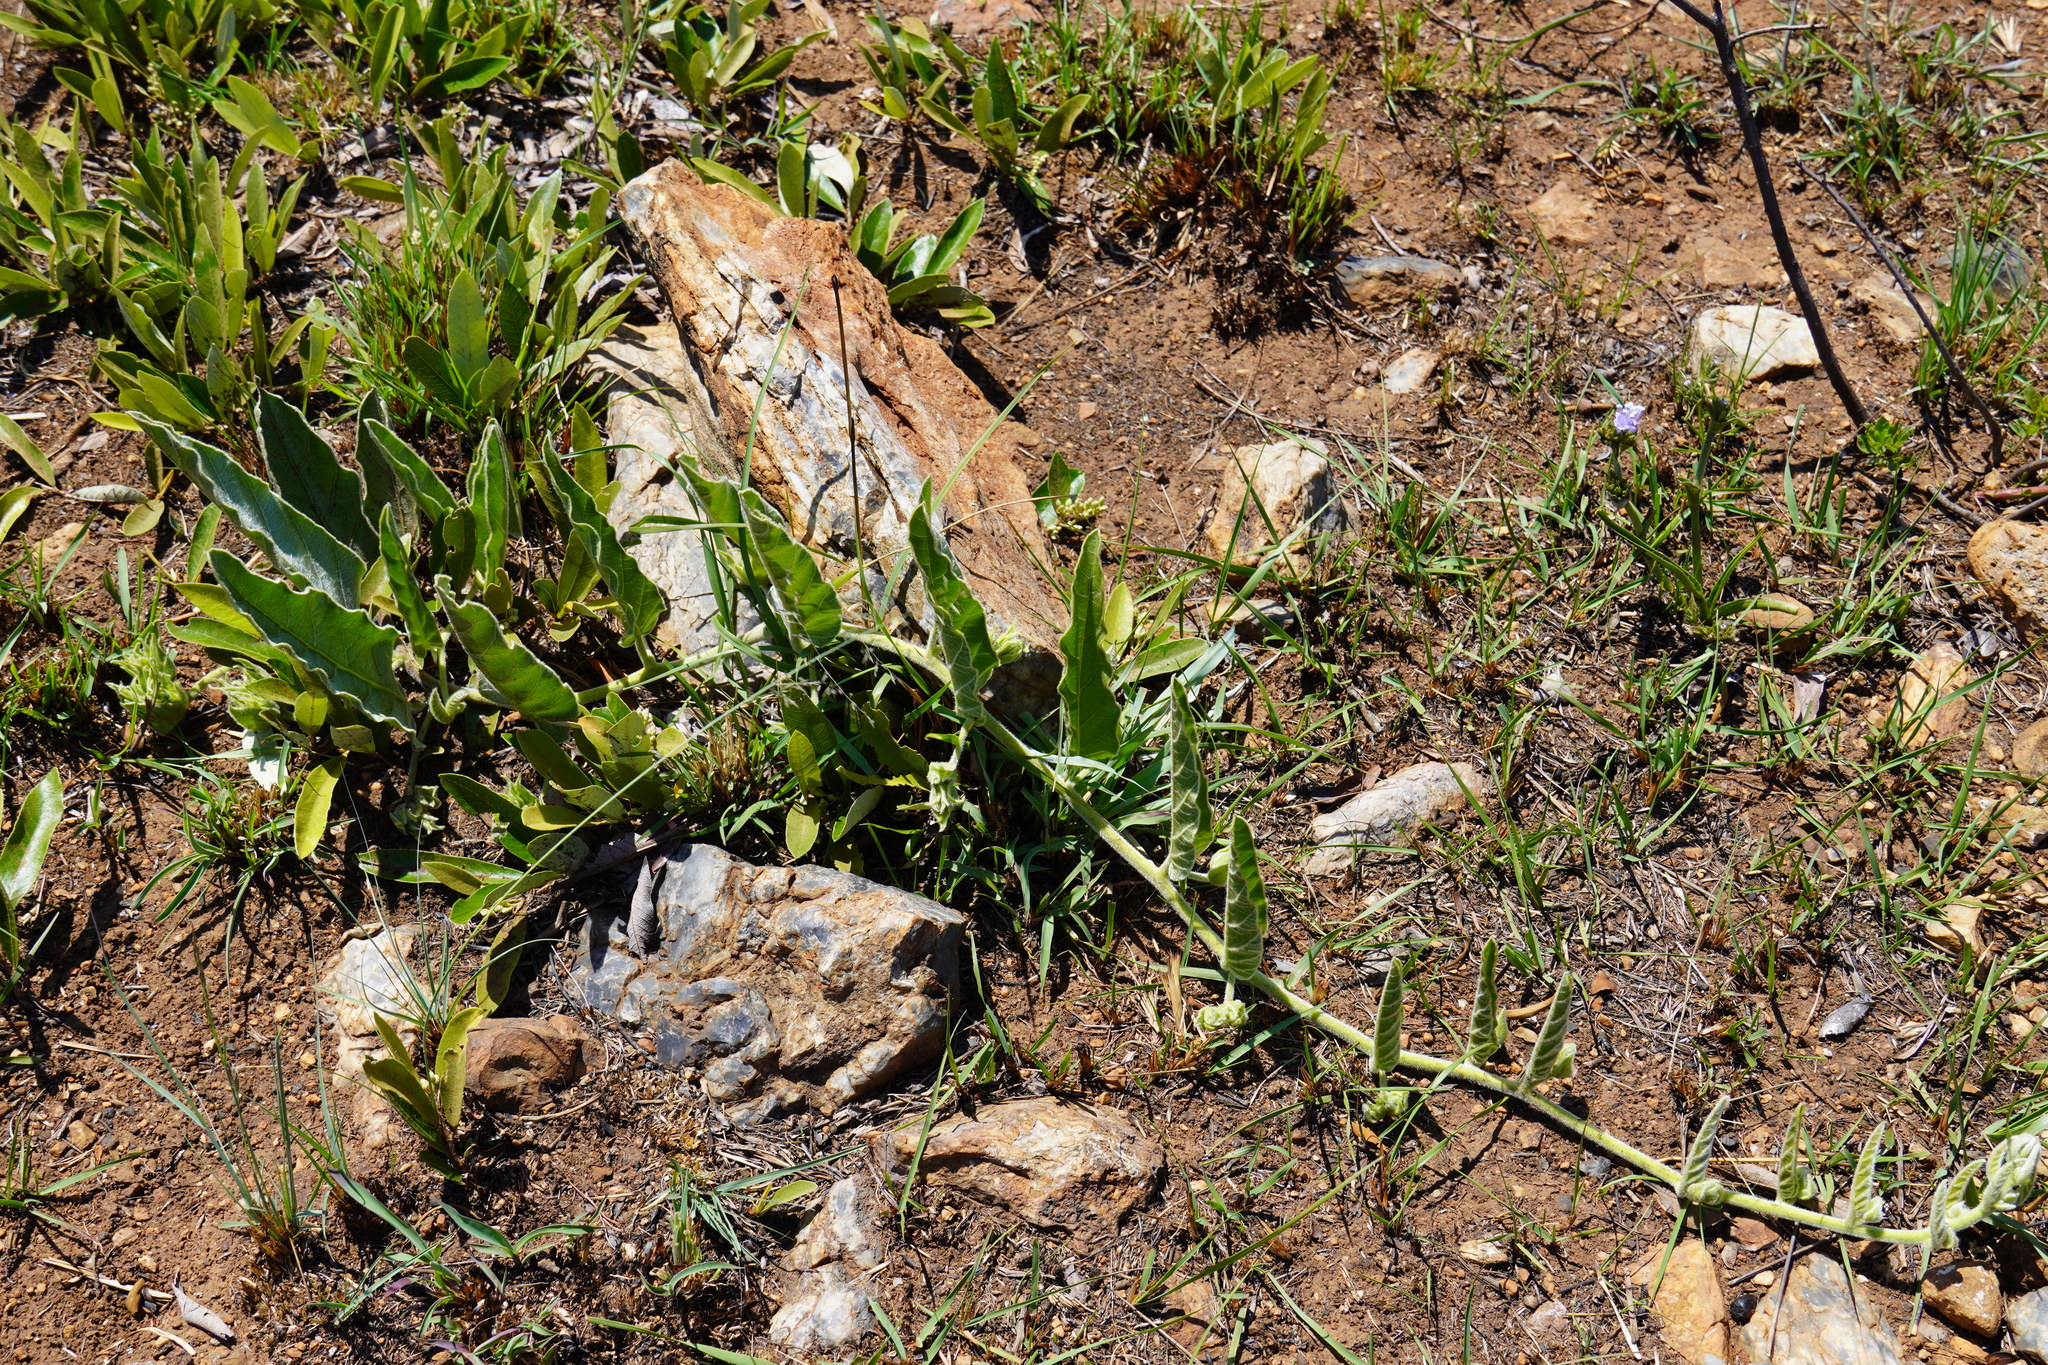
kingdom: Plantae
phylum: Tracheophyta
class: Magnoliopsida
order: Solanales
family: Convolvulaceae
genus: Ipomoea
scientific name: Ipomoea ommanneyi
